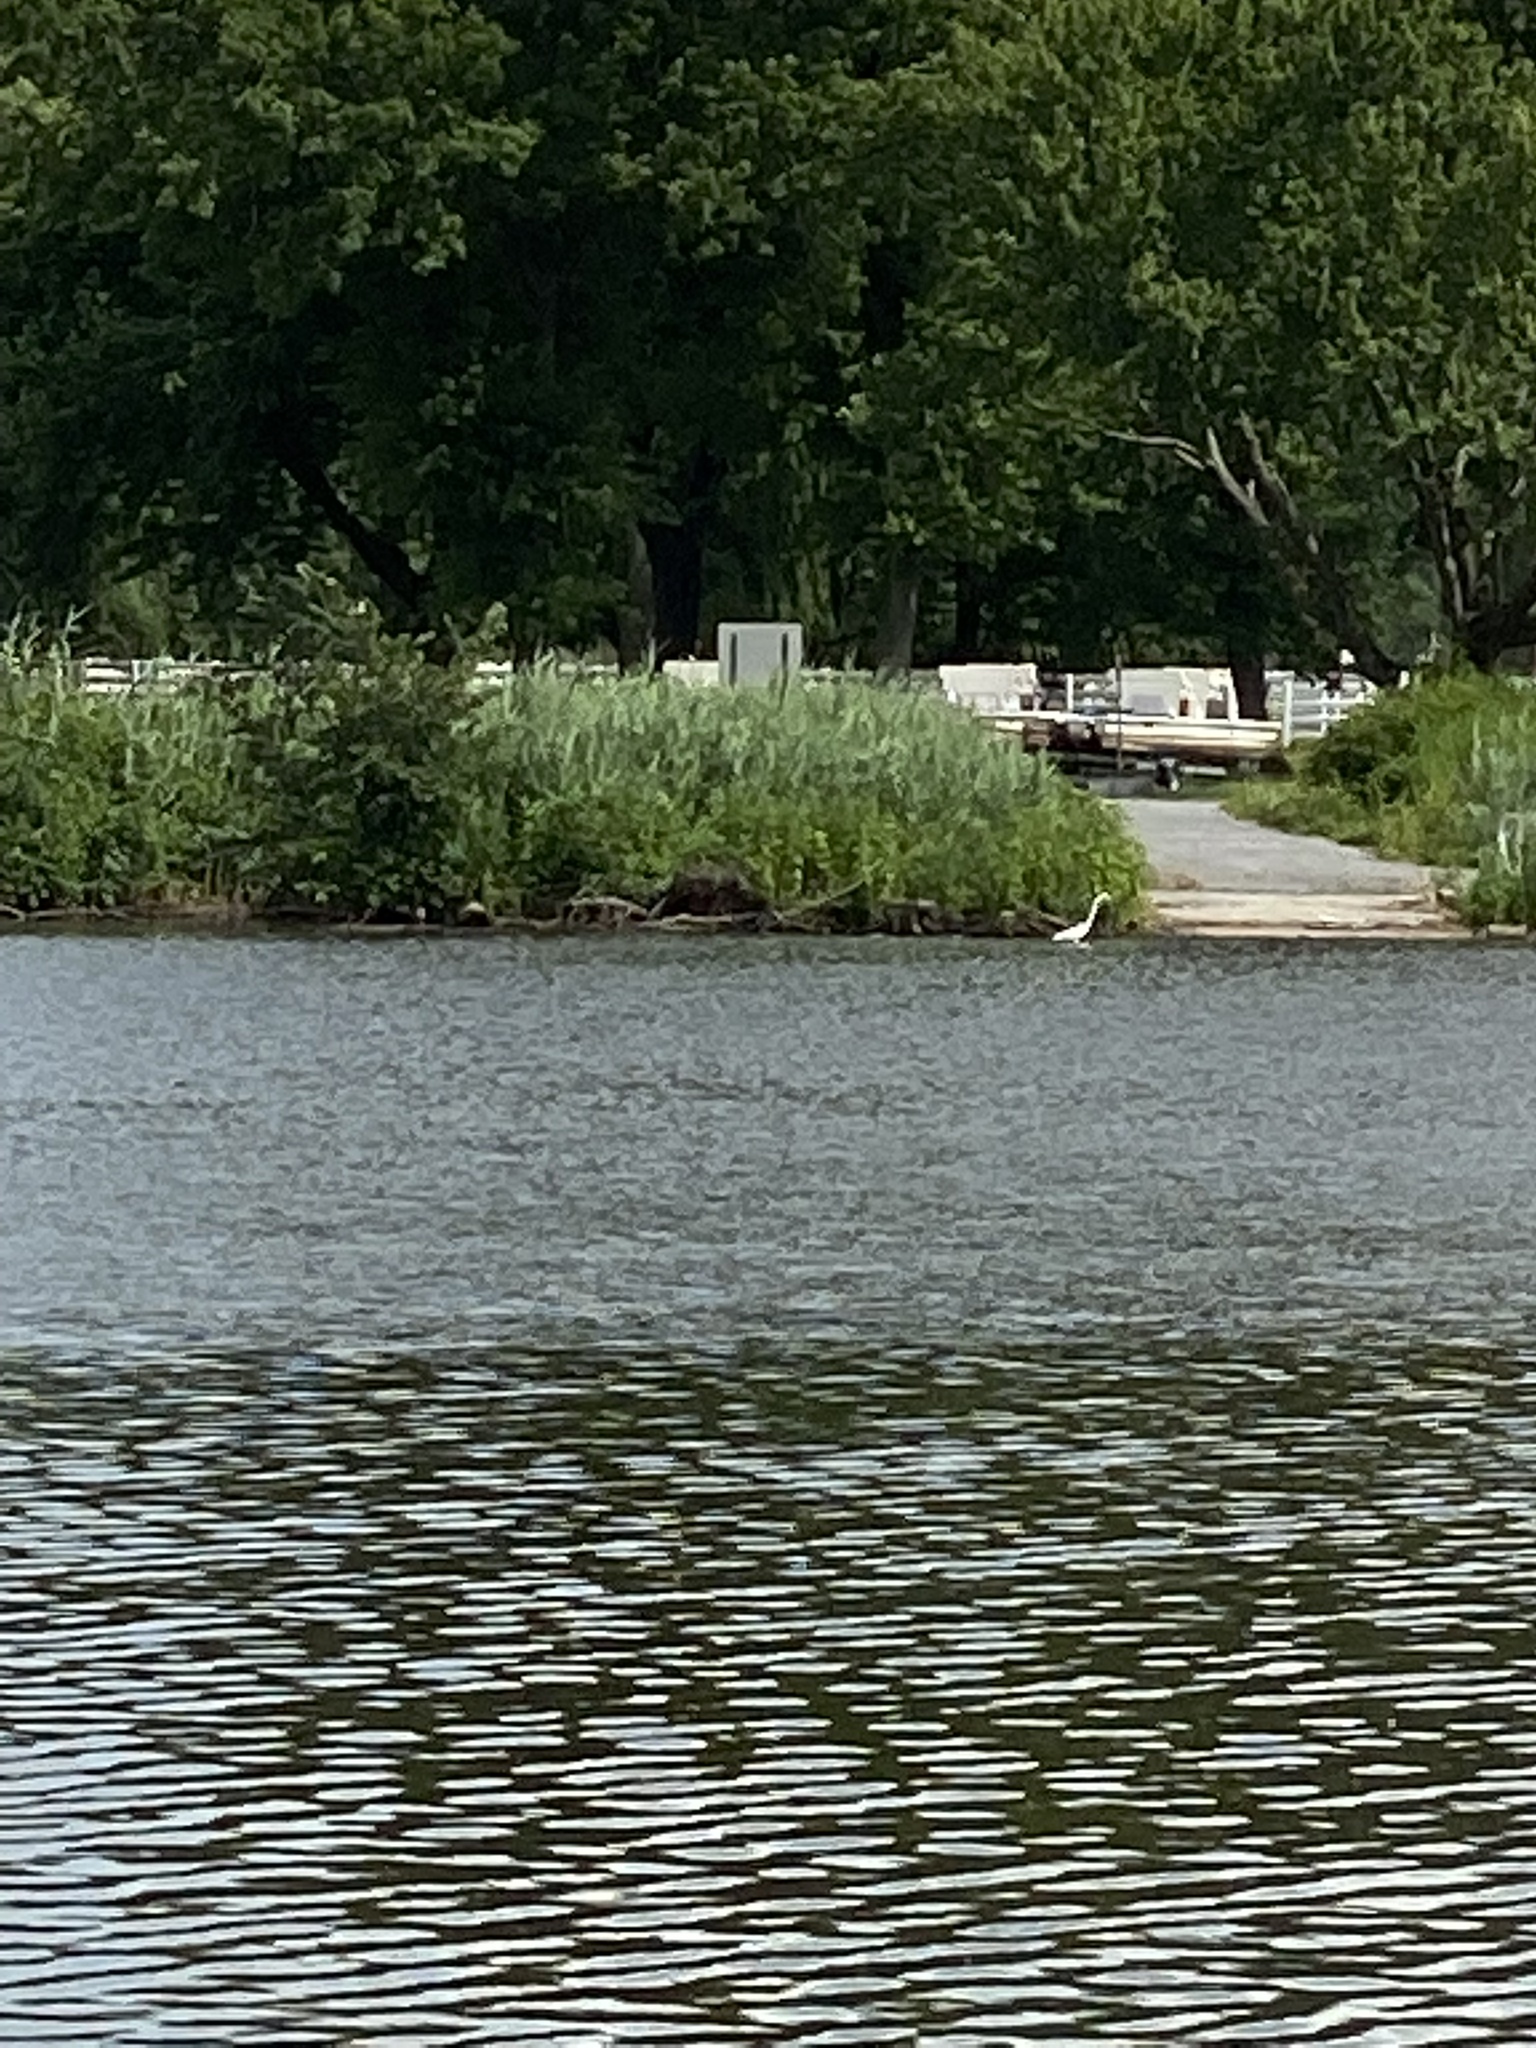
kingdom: Animalia
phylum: Chordata
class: Aves
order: Pelecaniformes
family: Ardeidae
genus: Ardea
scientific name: Ardea alba
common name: Great egret
